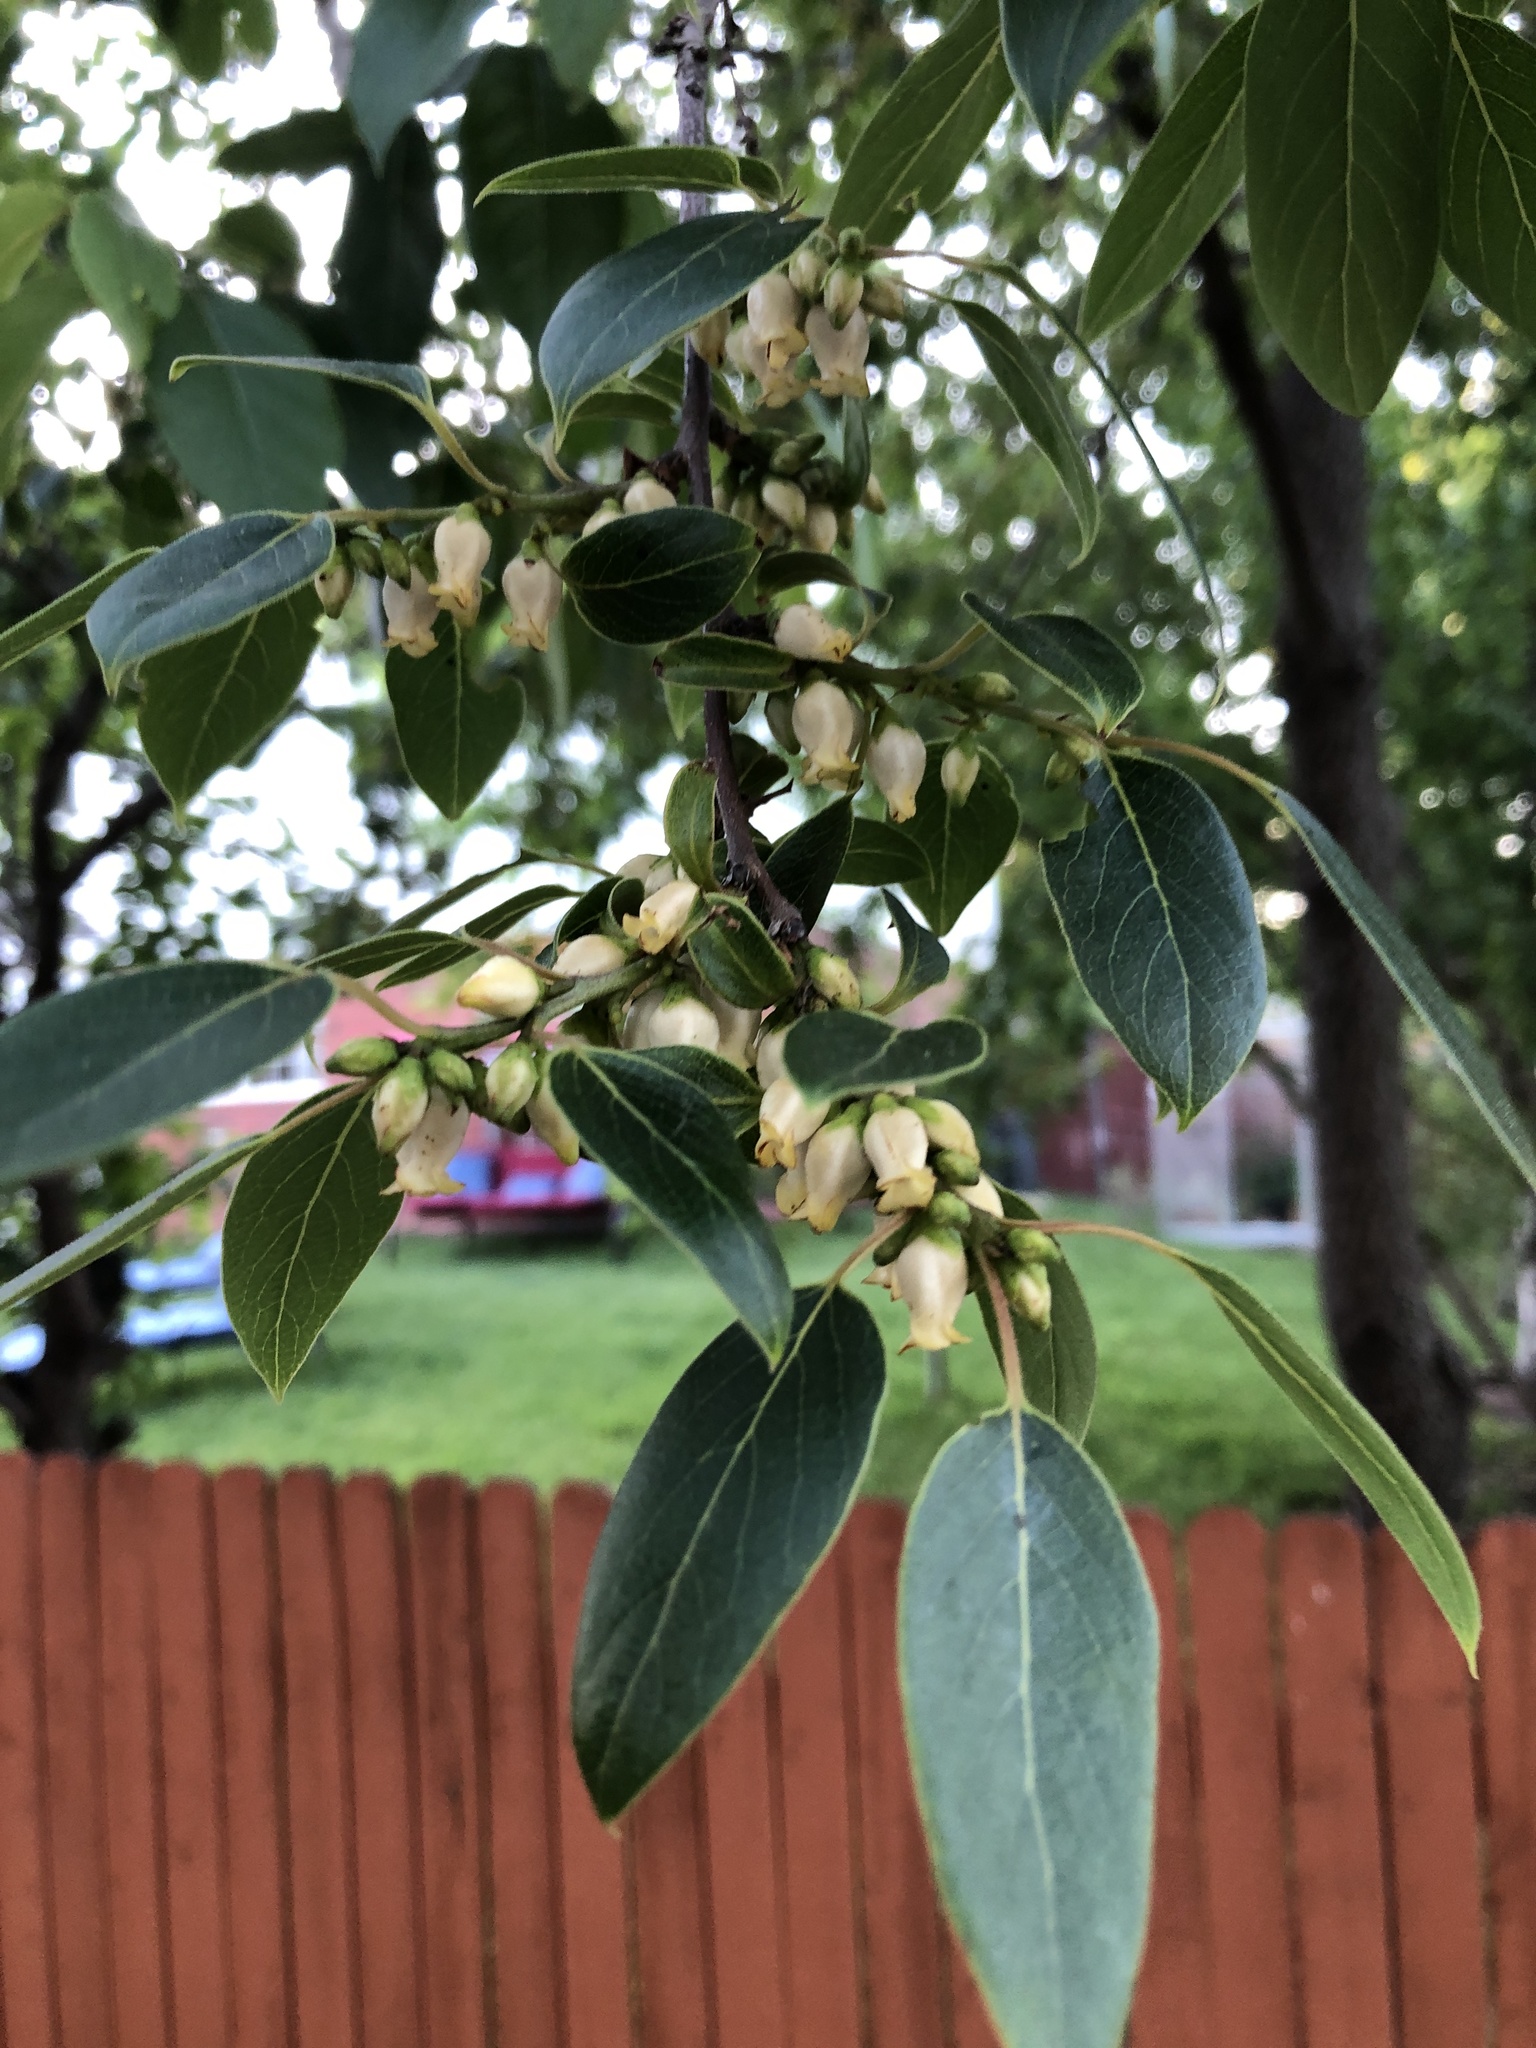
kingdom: Plantae
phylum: Tracheophyta
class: Magnoliopsida
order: Ericales
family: Ebenaceae
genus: Diospyros
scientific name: Diospyros virginiana
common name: Persimmon
